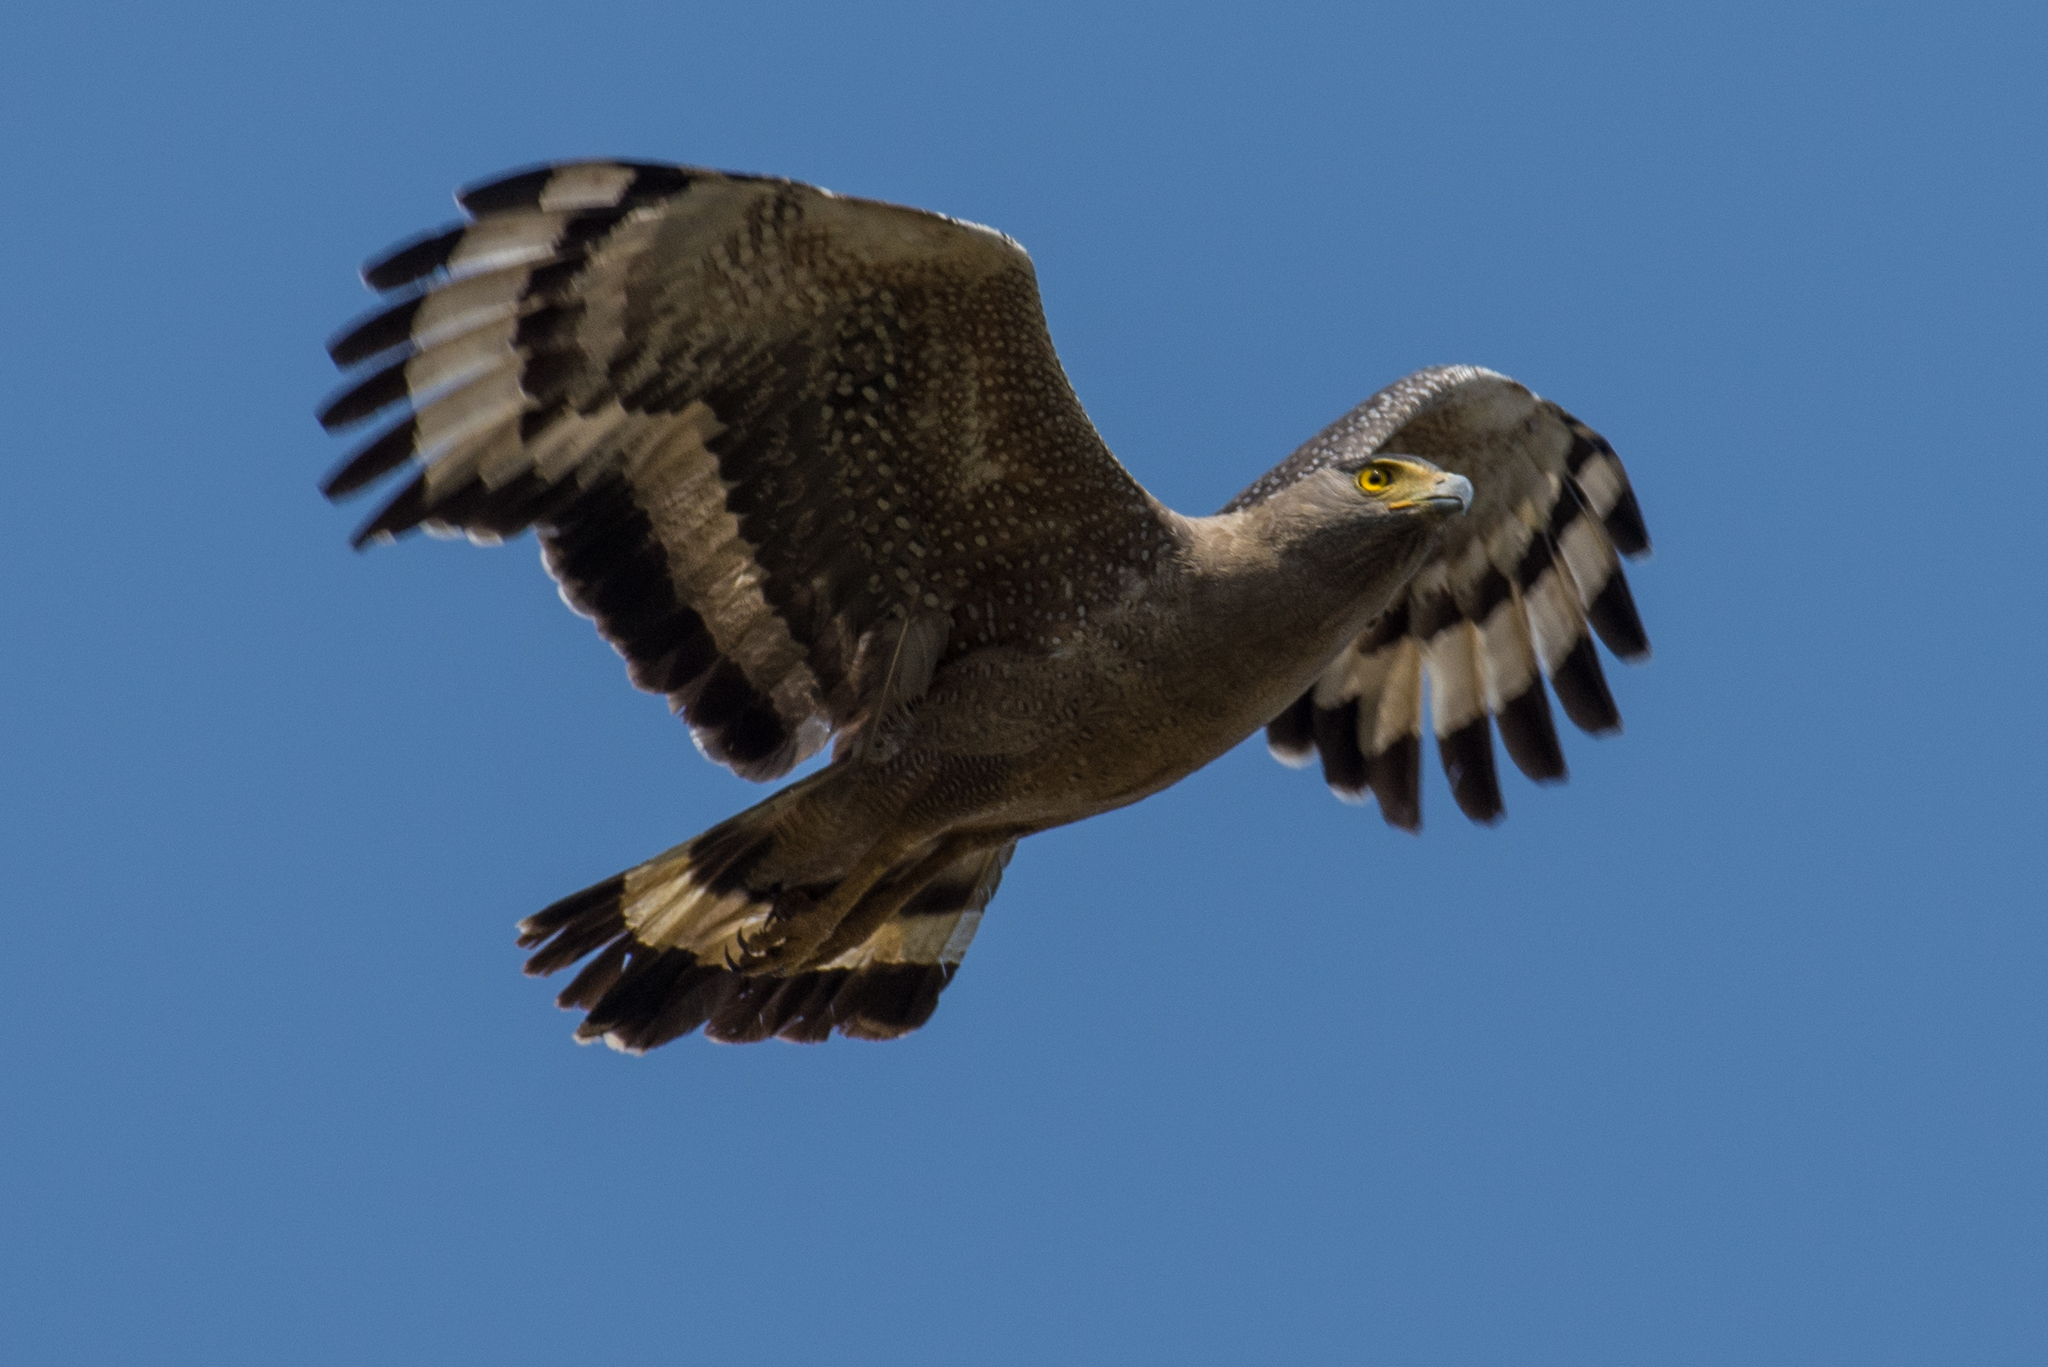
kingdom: Animalia
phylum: Chordata
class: Aves
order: Accipitriformes
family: Accipitridae
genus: Spilornis
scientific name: Spilornis cheela
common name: Crested serpent eagle
